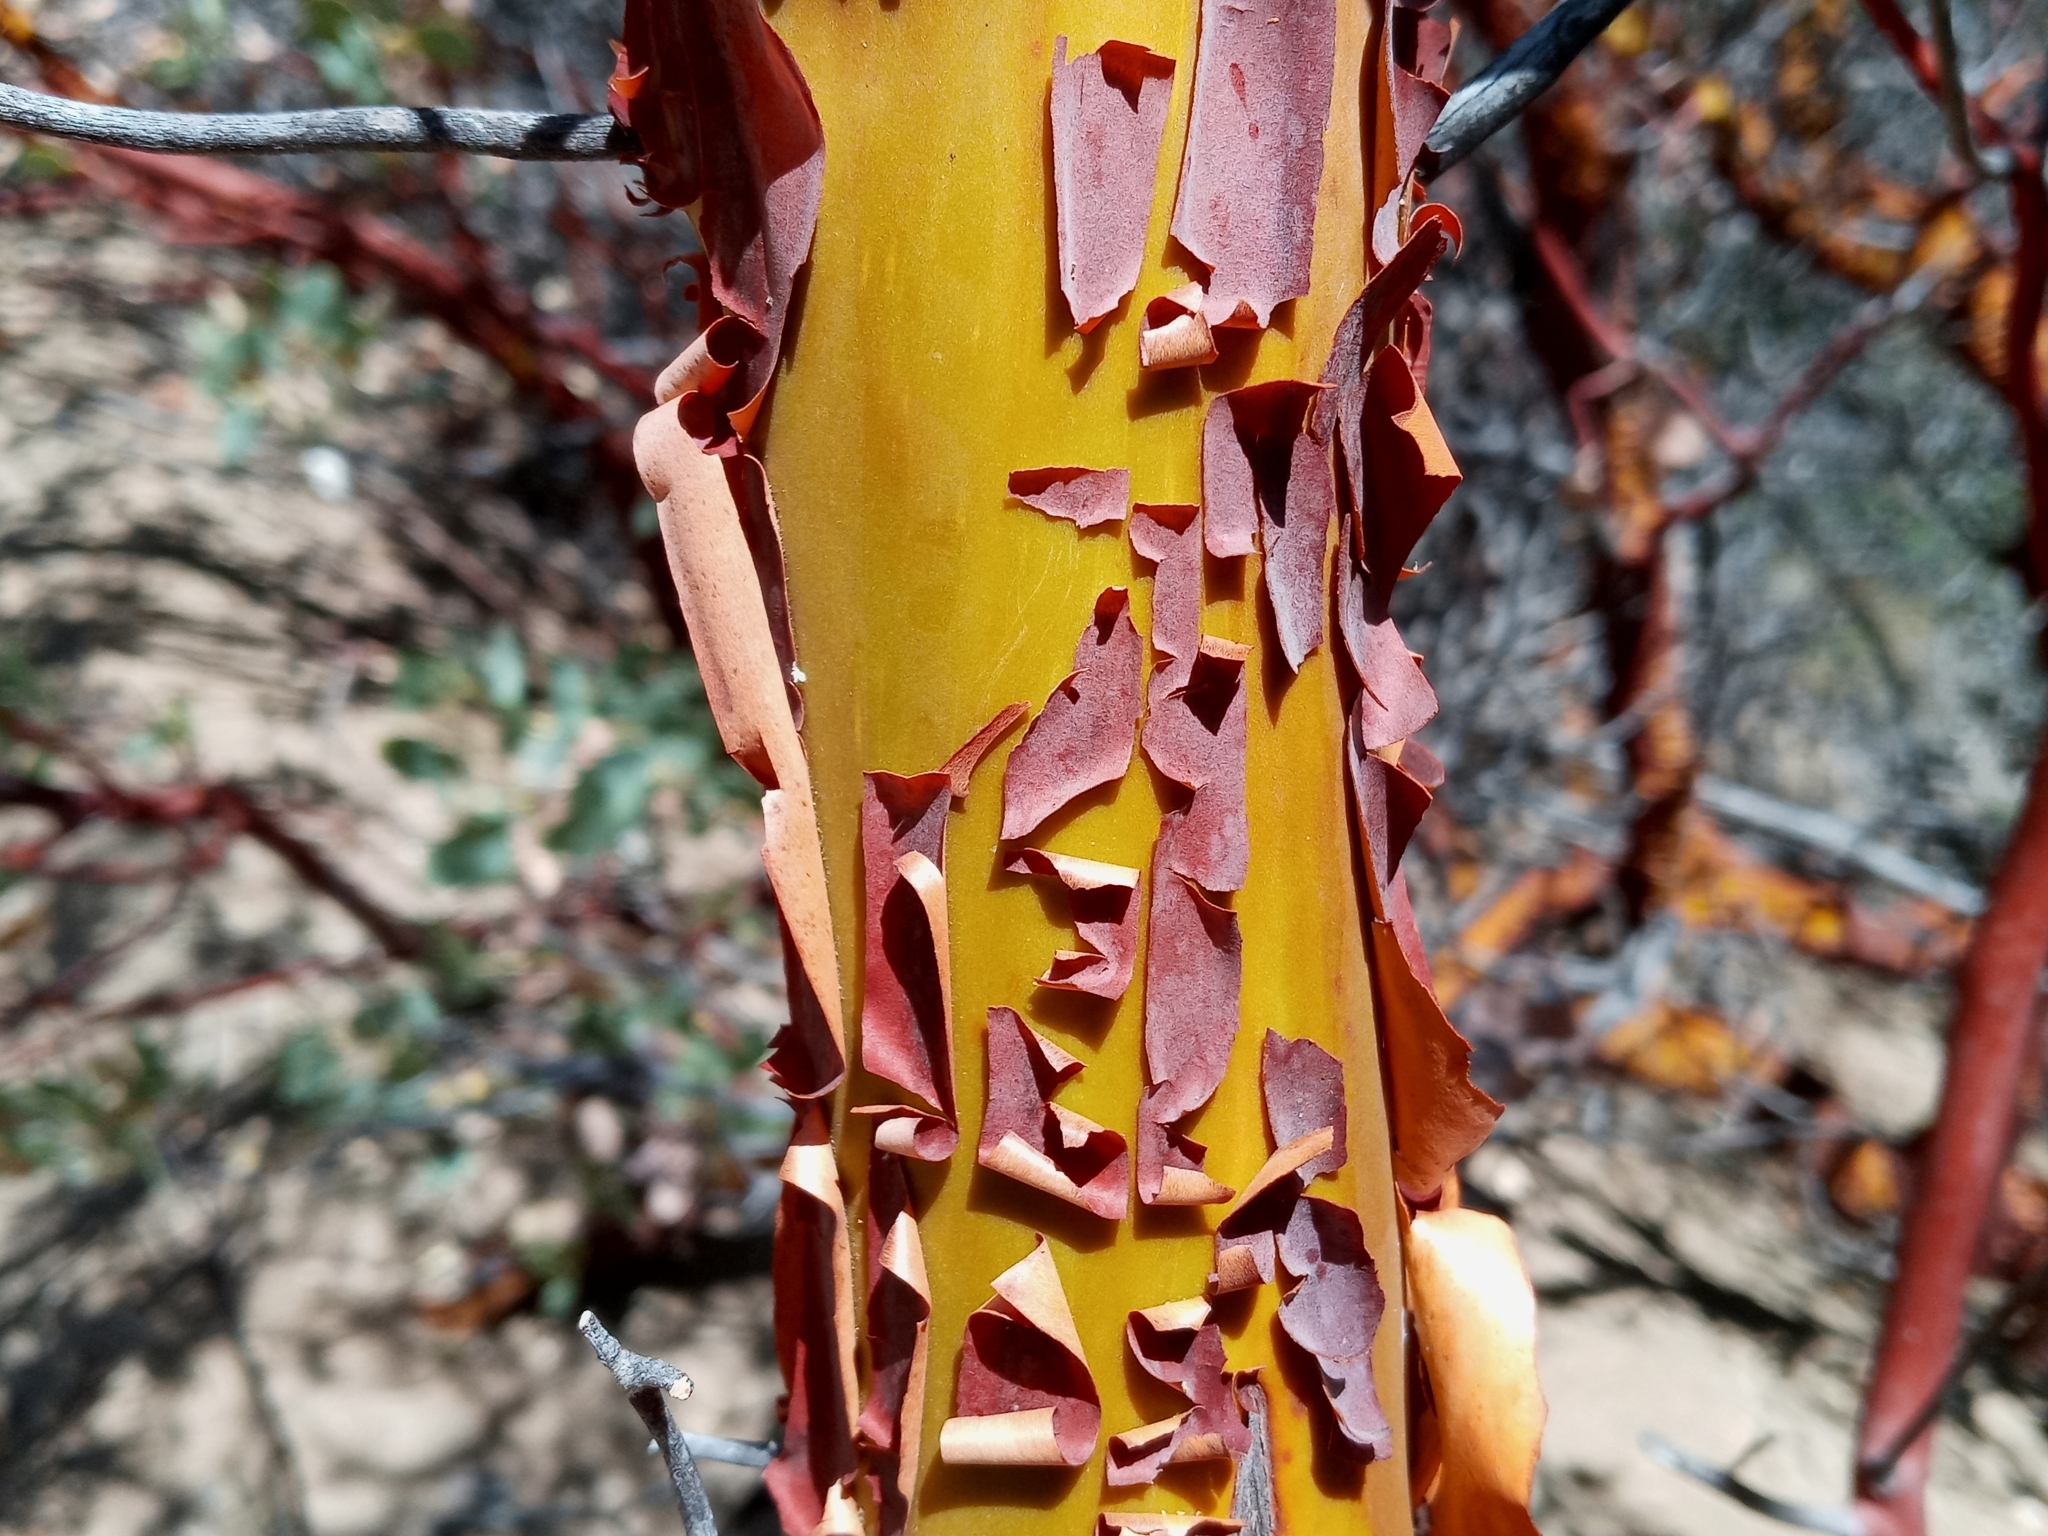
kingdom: Plantae
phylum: Tracheophyta
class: Magnoliopsida
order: Ericales
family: Ericaceae
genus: Arctostaphylos
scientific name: Arctostaphylos glauca
